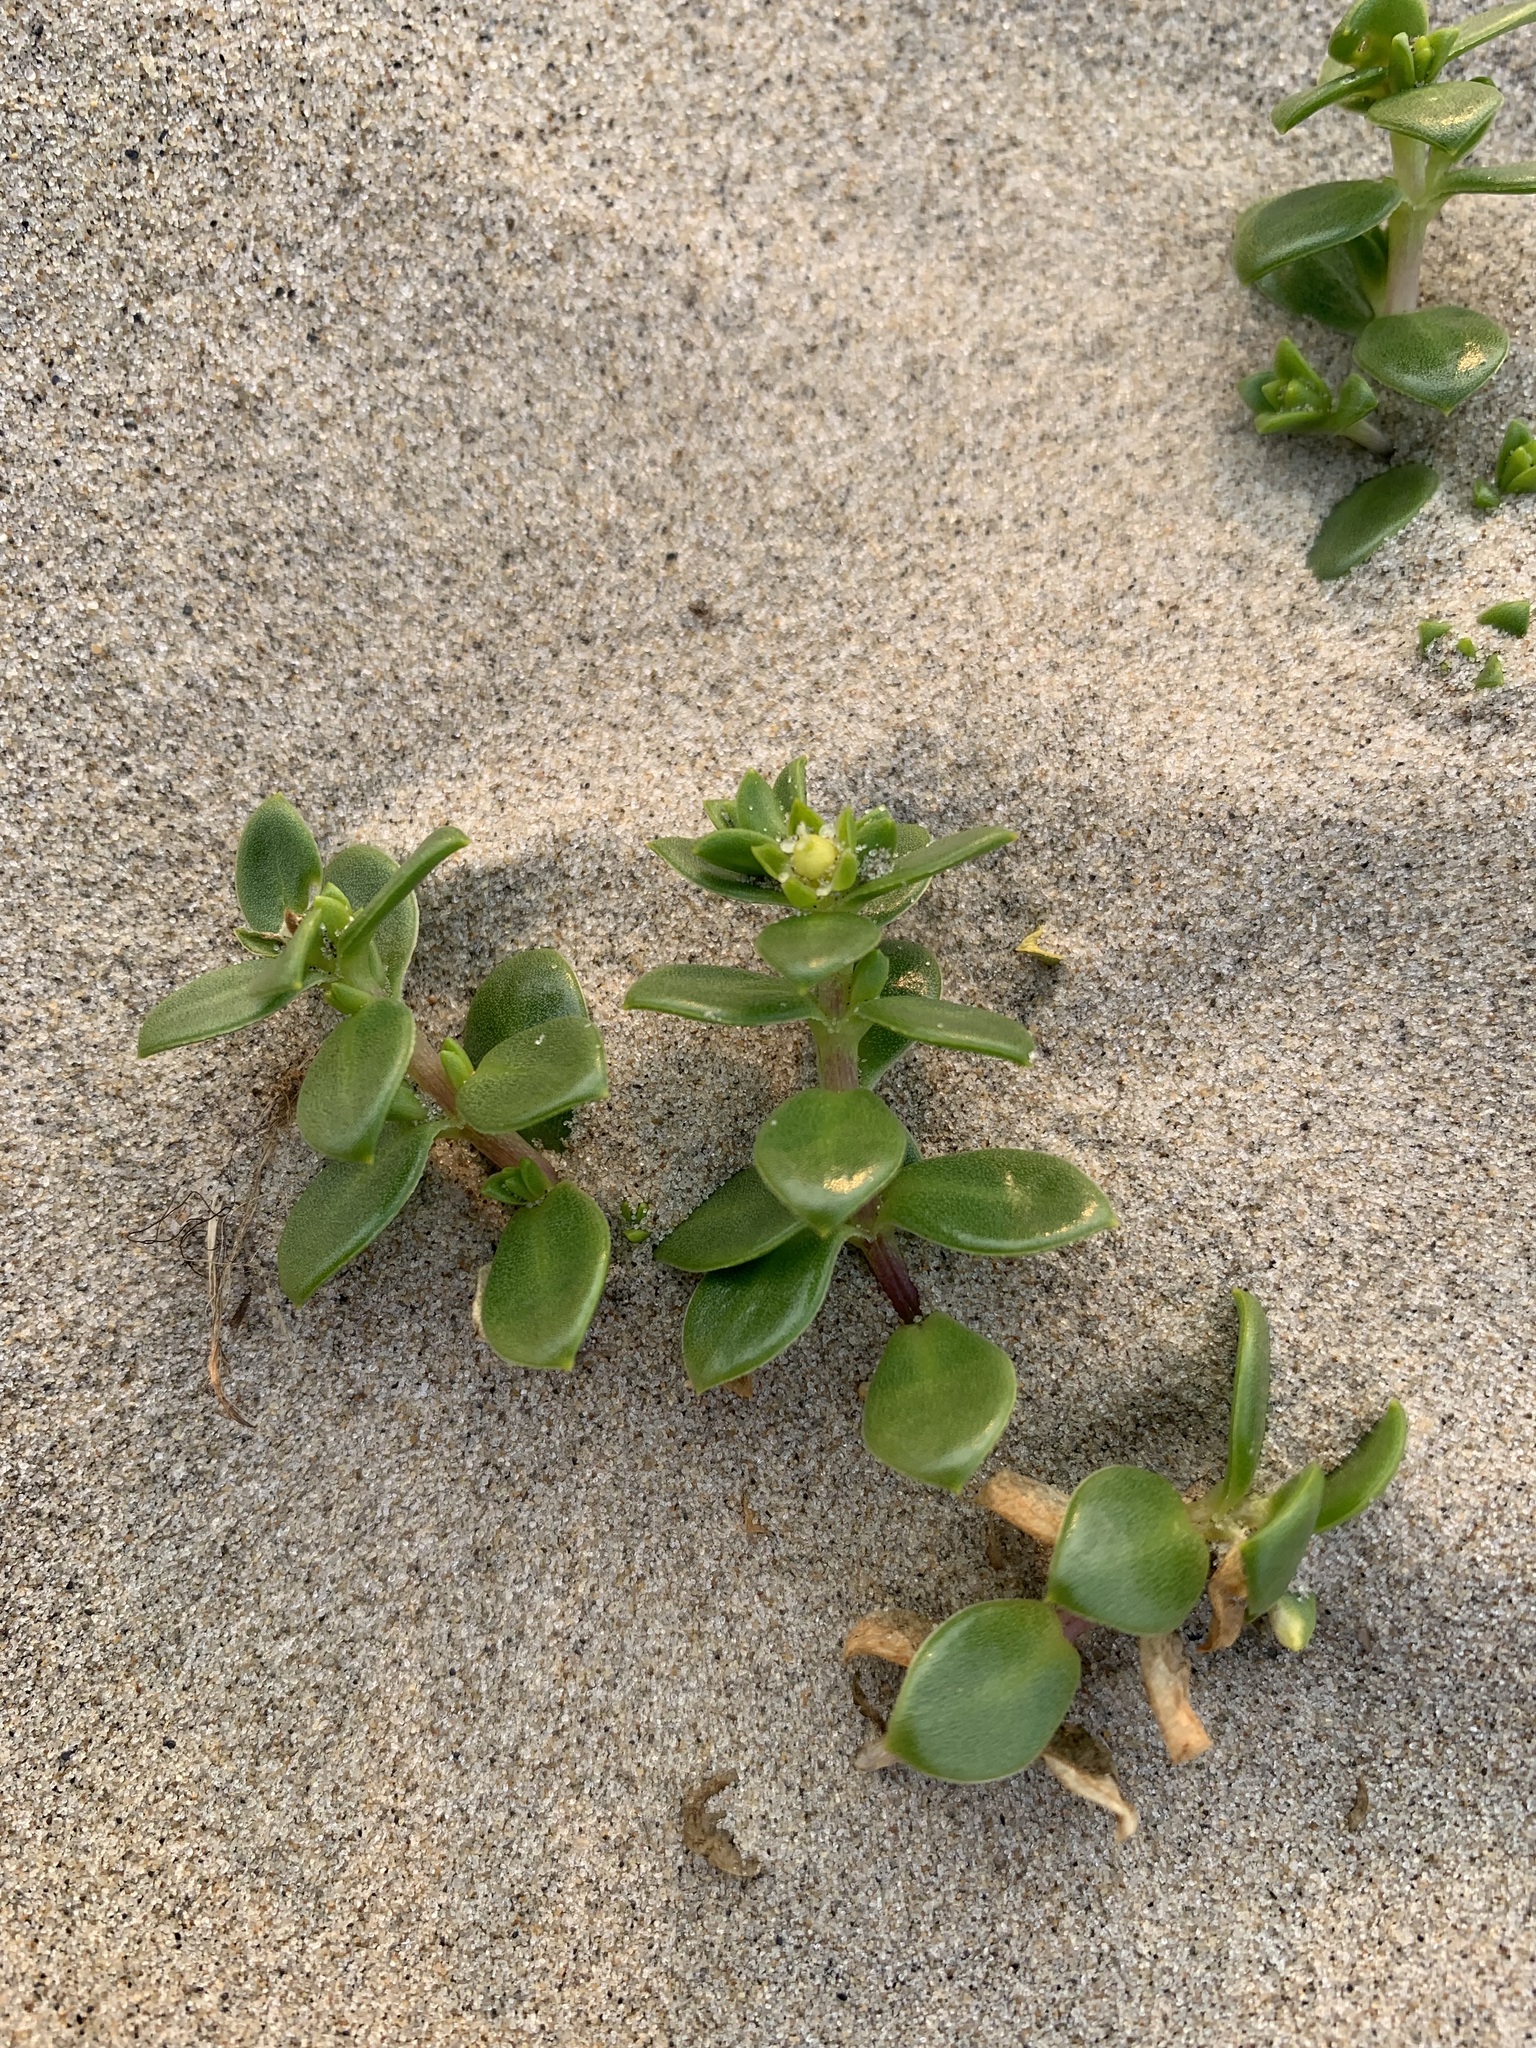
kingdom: Plantae
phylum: Tracheophyta
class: Magnoliopsida
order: Caryophyllales
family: Caryophyllaceae
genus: Honckenya
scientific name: Honckenya peploides
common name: Sea sandwort
